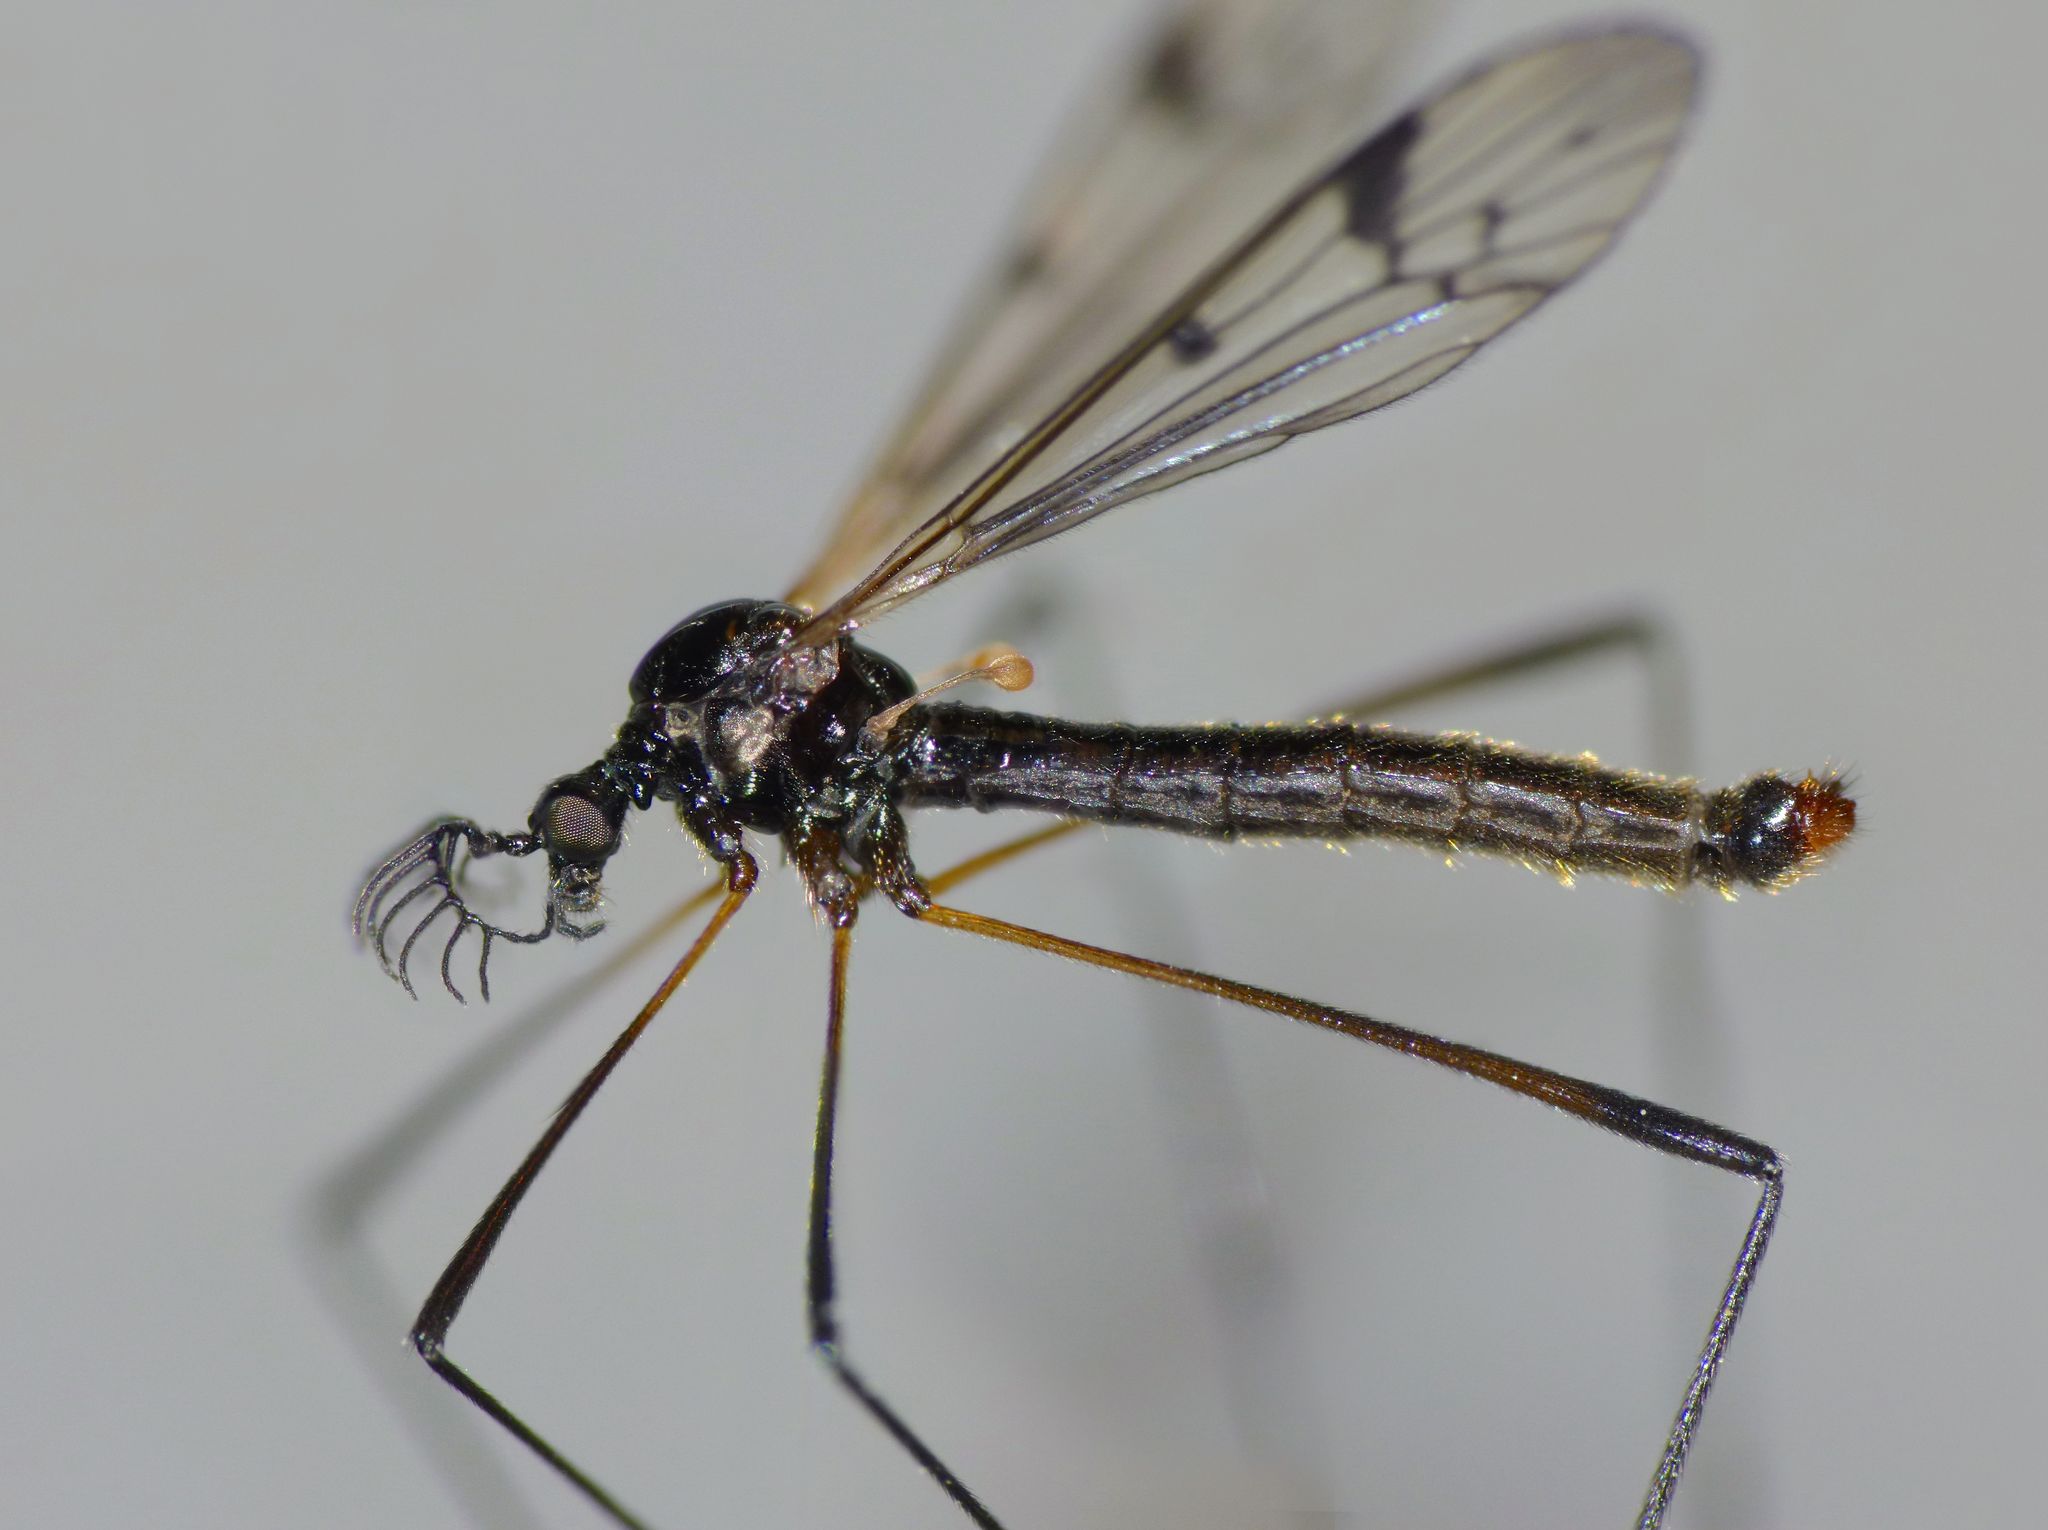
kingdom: Animalia
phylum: Arthropoda
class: Insecta
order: Diptera
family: Limoniidae
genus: Gynoplistia
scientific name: Gynoplistia bidentata
